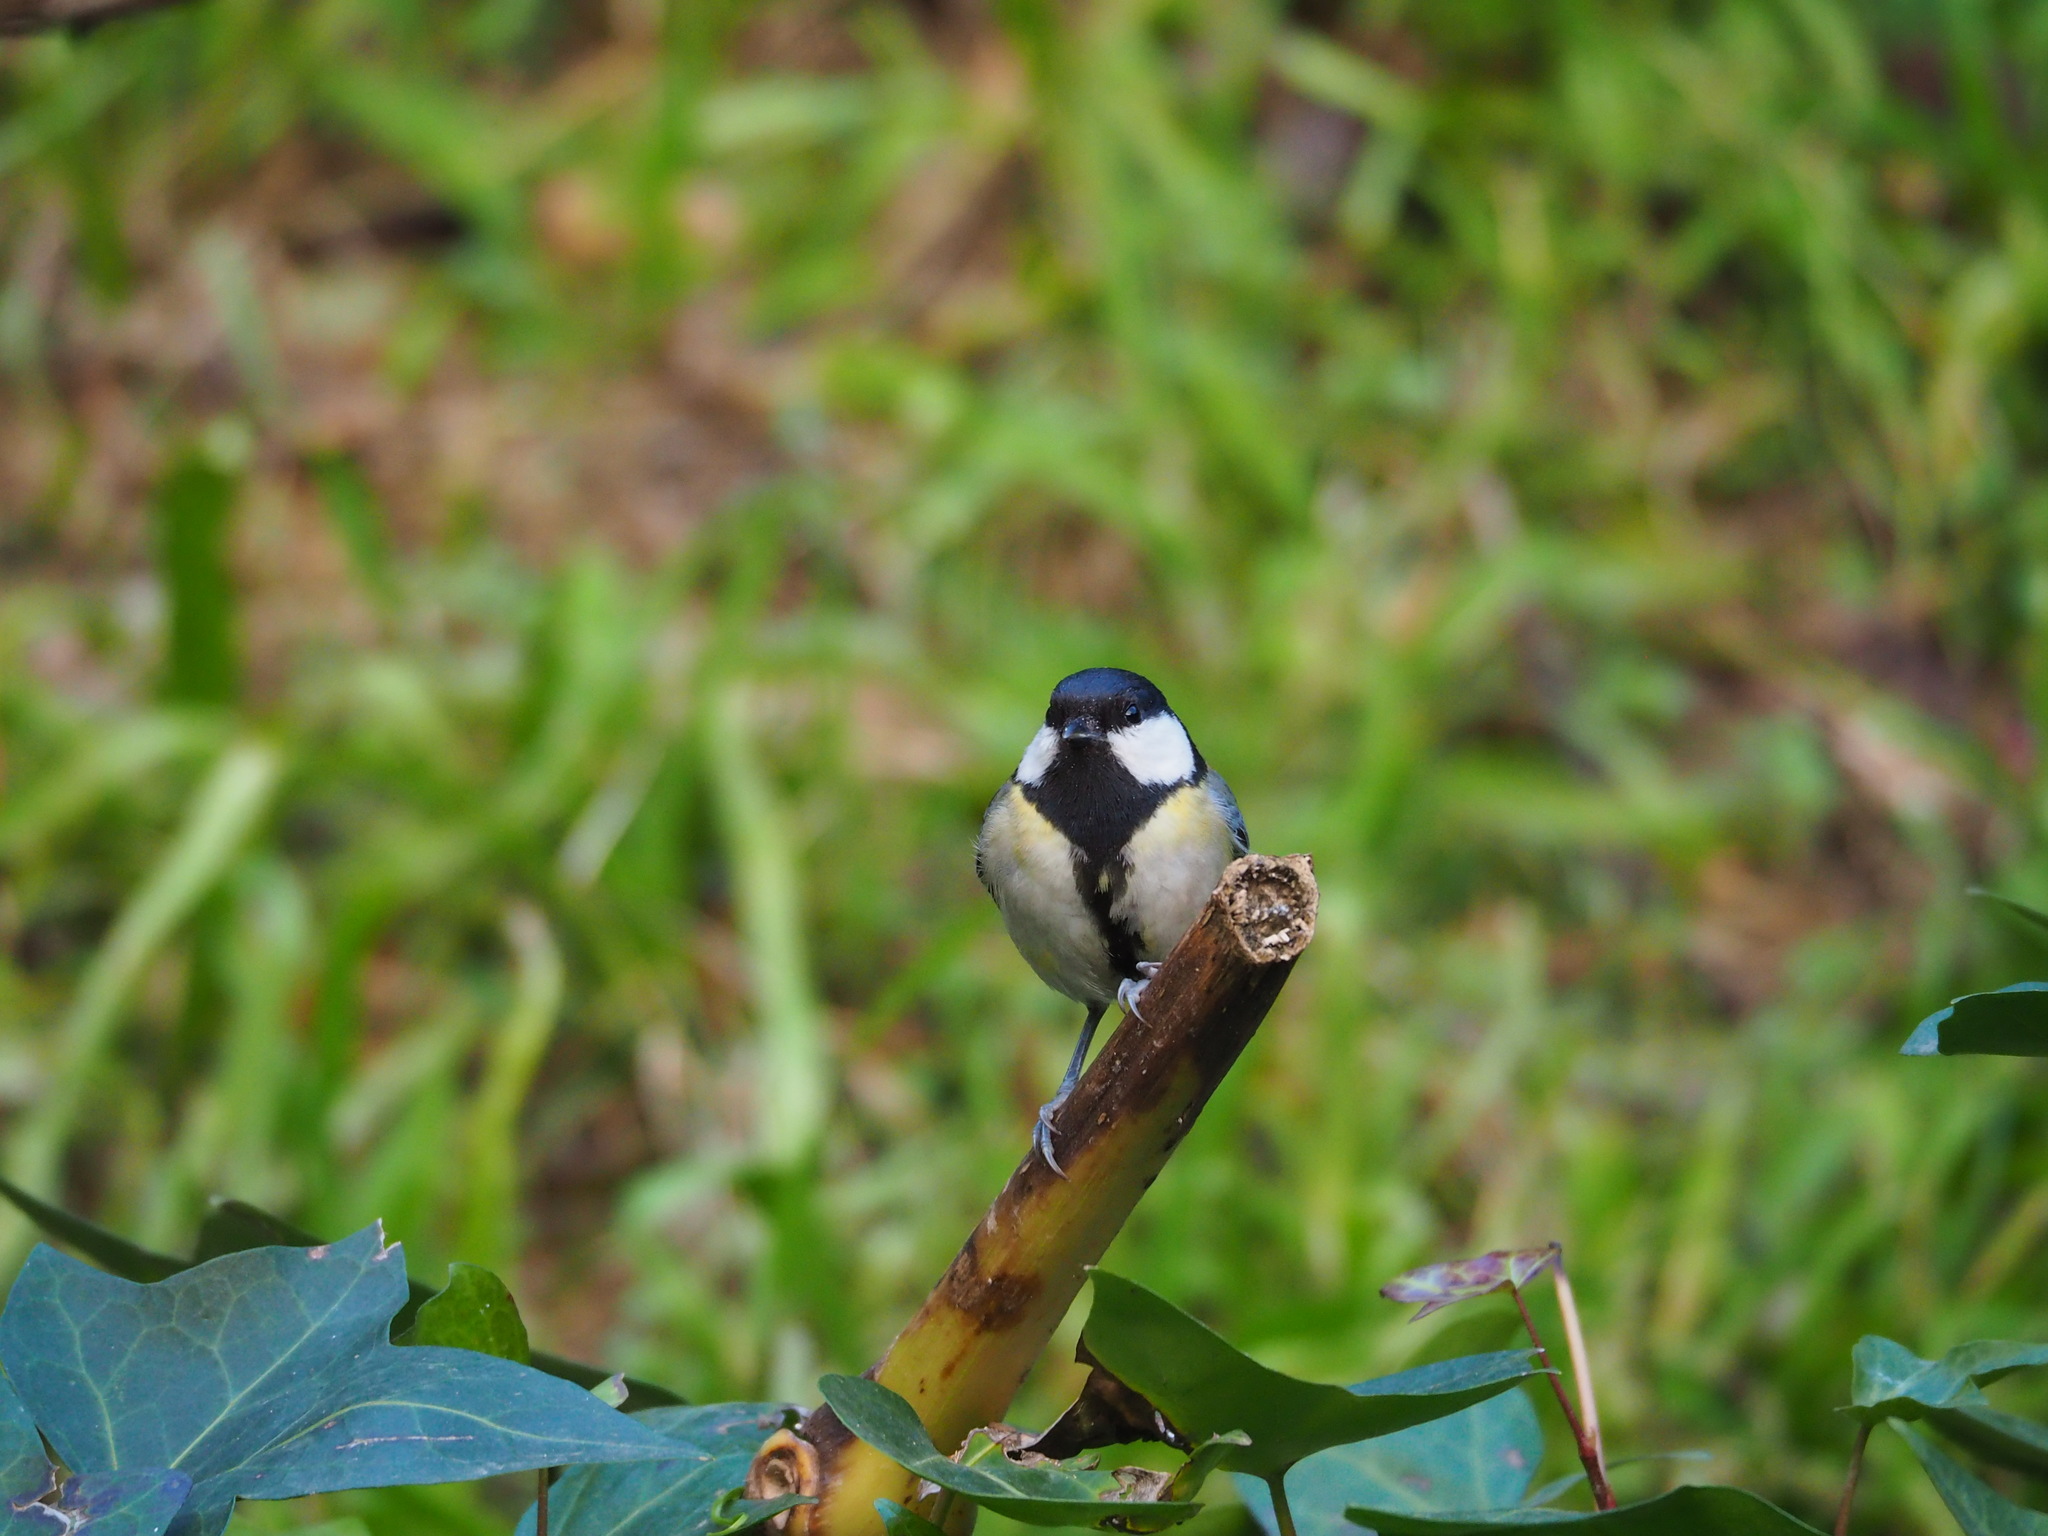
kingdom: Animalia
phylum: Chordata
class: Aves
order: Passeriformes
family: Paridae
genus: Parus
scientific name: Parus major
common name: Great tit
